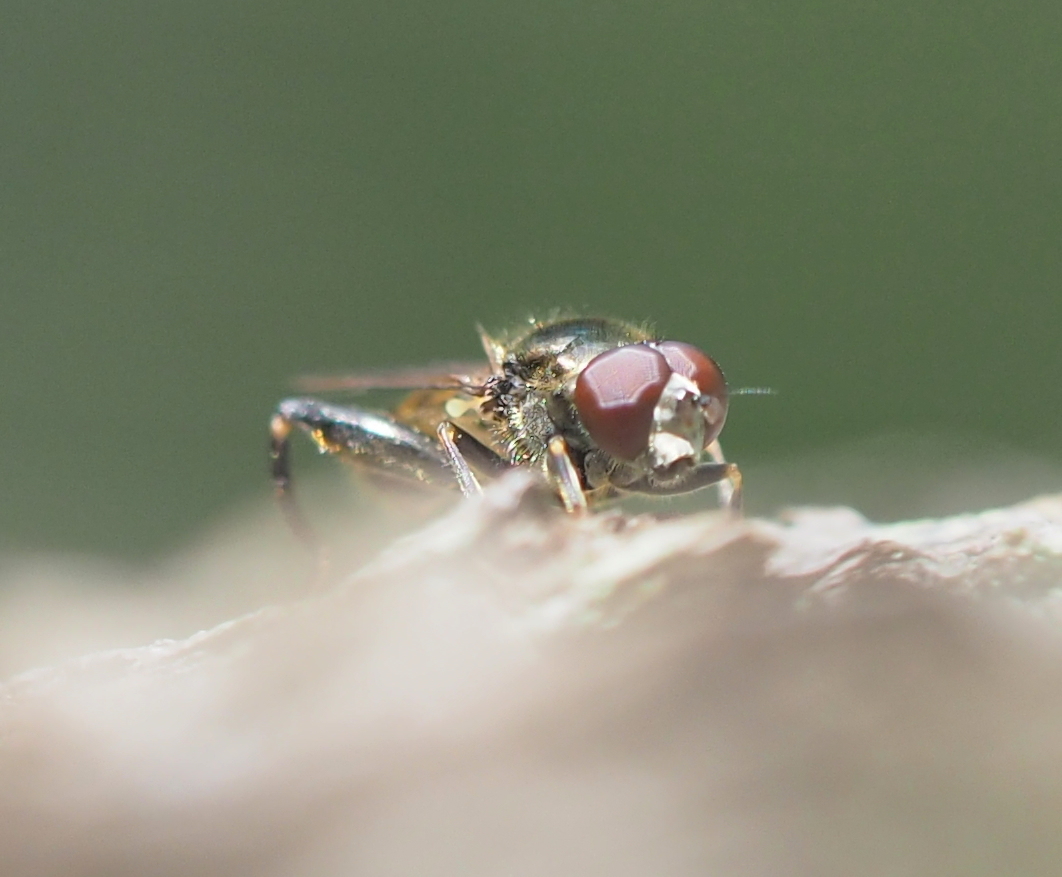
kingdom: Animalia
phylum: Arthropoda
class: Insecta
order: Diptera
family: Syrphidae
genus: Xylota
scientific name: Xylota segnis
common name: Brown-toed forest fly
